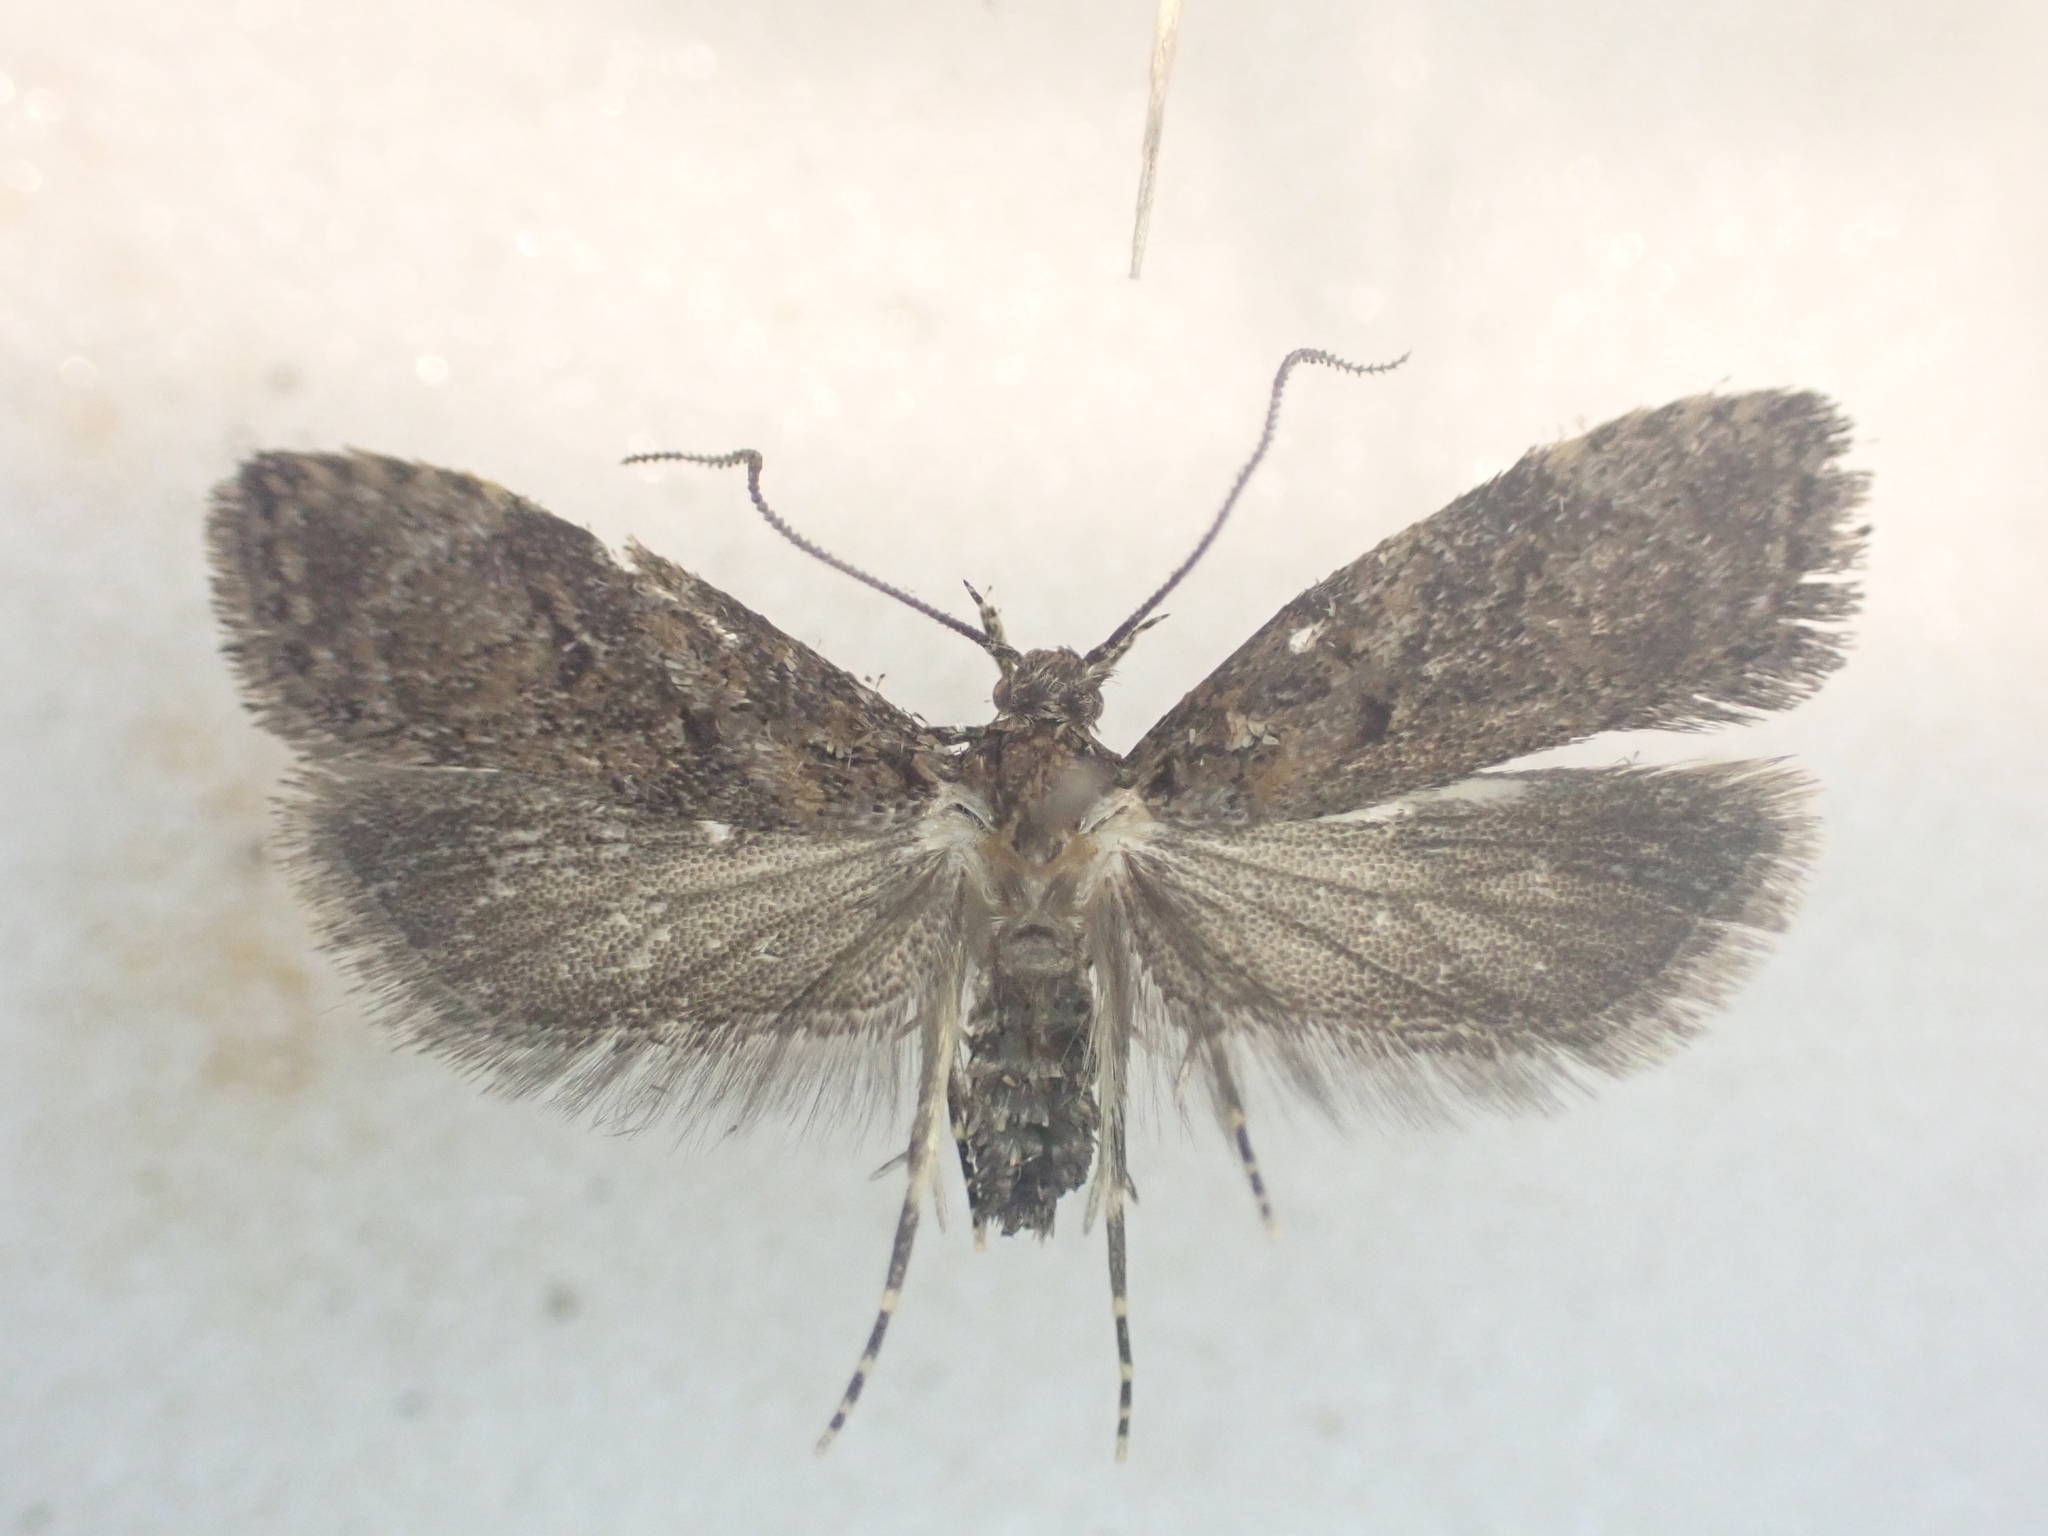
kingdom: Animalia
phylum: Arthropoda
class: Insecta
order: Lepidoptera
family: Oecophoridae
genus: Izatha
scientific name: Izatha austera
